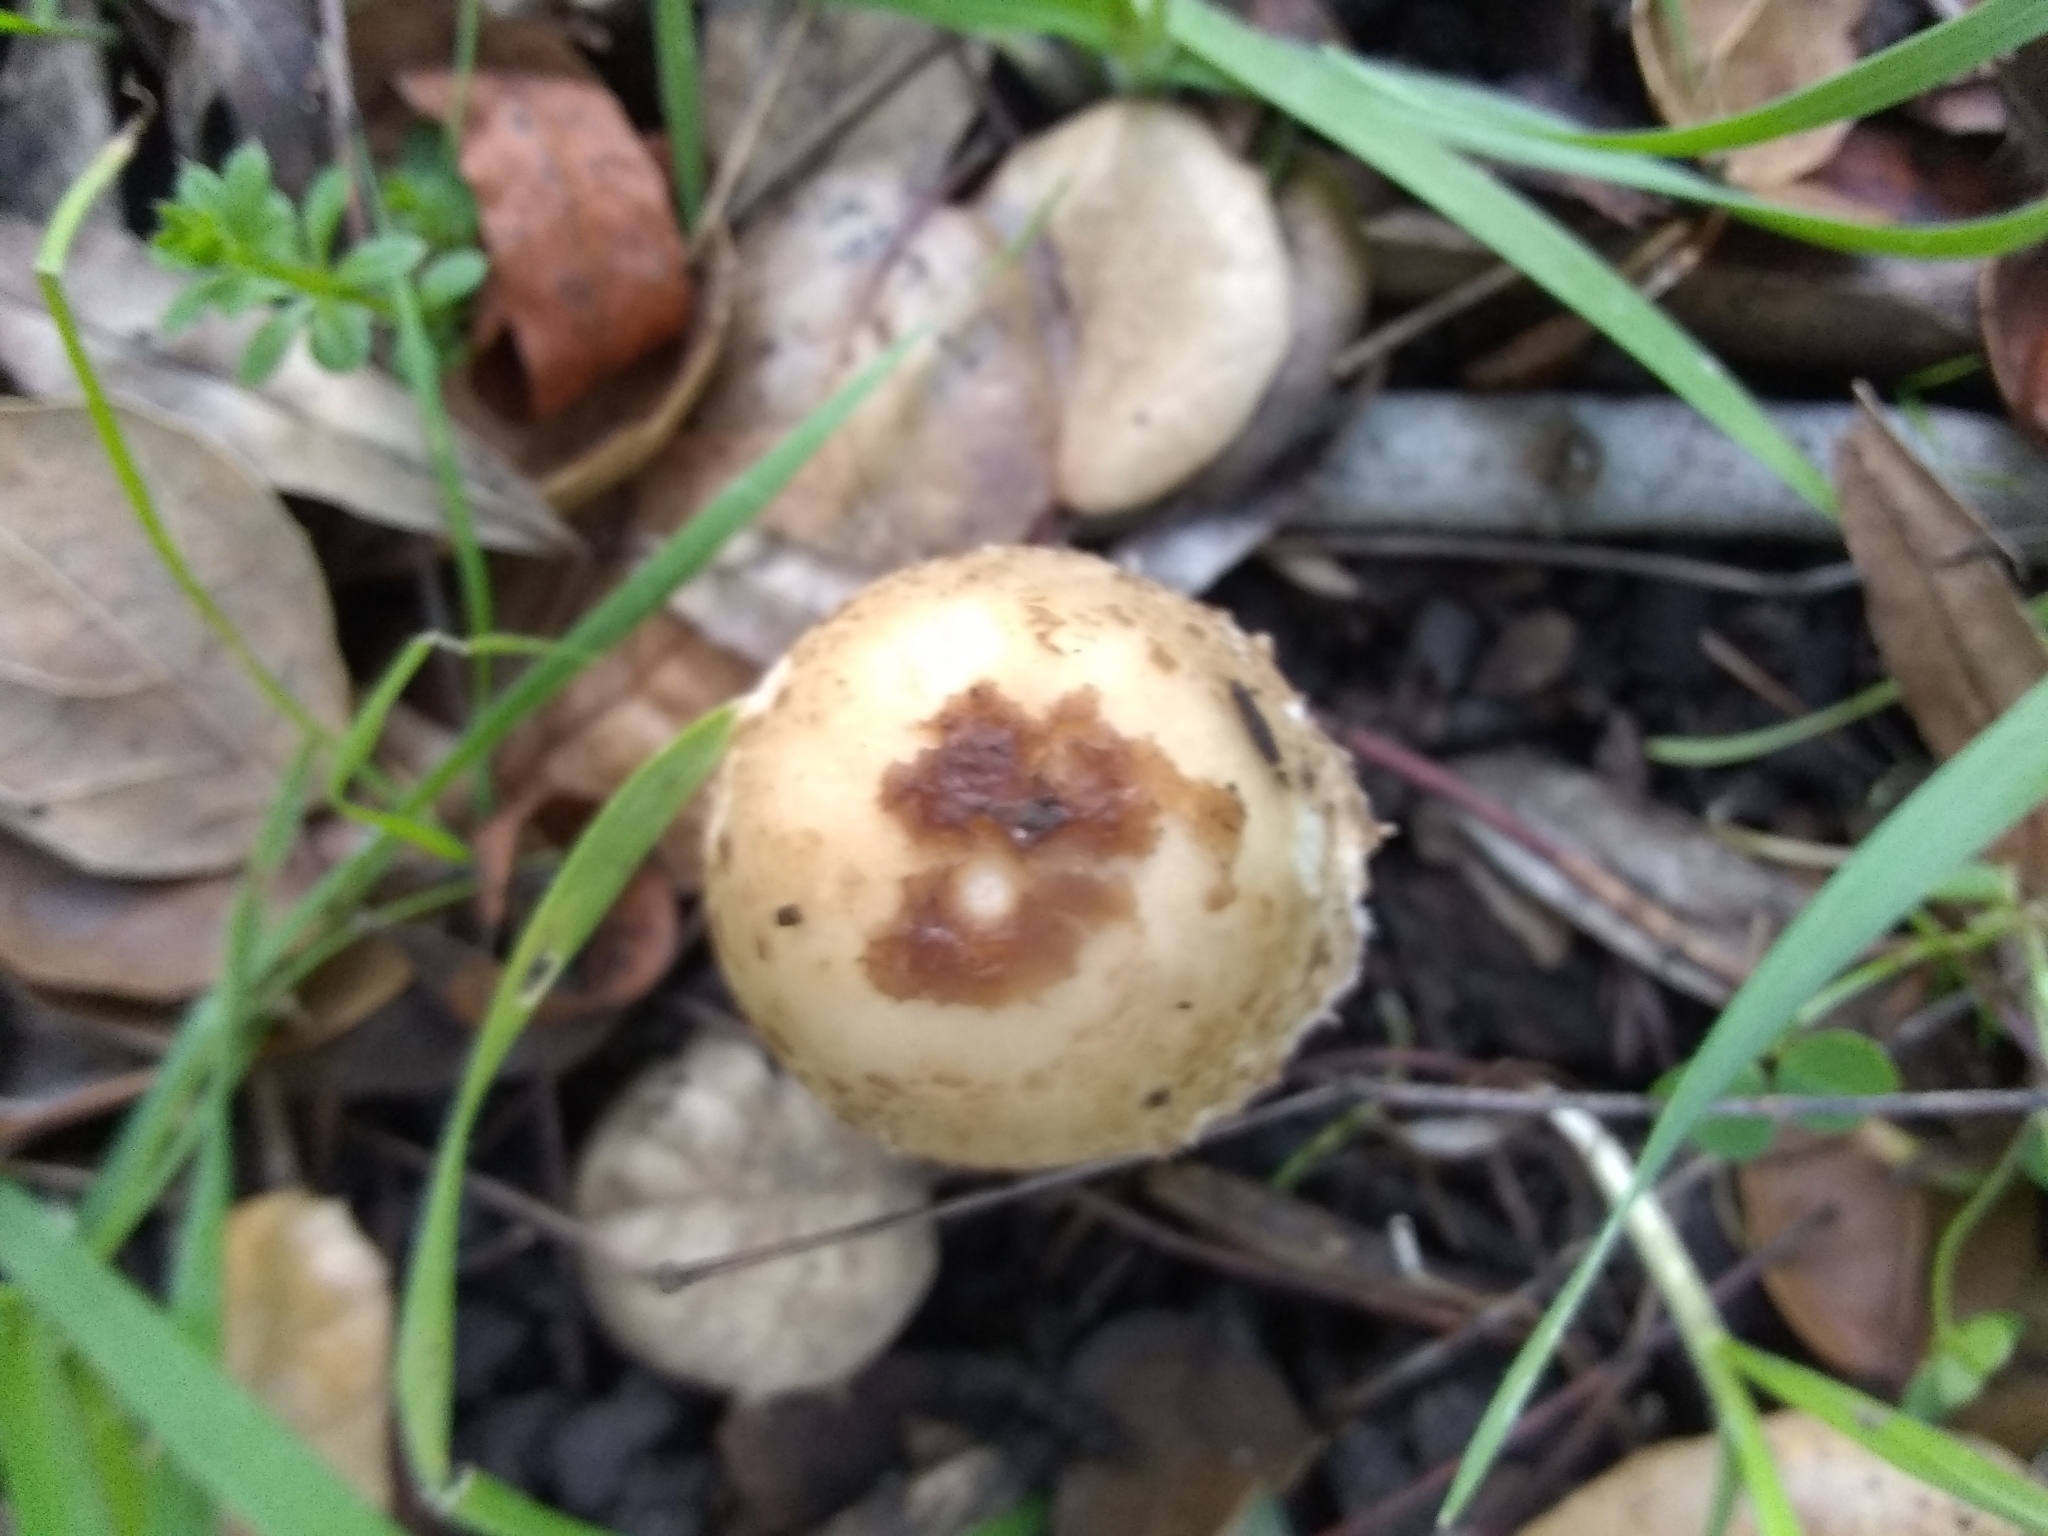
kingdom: Fungi
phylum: Basidiomycota
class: Agaricomycetes
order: Agaricales
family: Agaricaceae
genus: Coprinus
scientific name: Coprinus comatus
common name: Lawyer's wig
